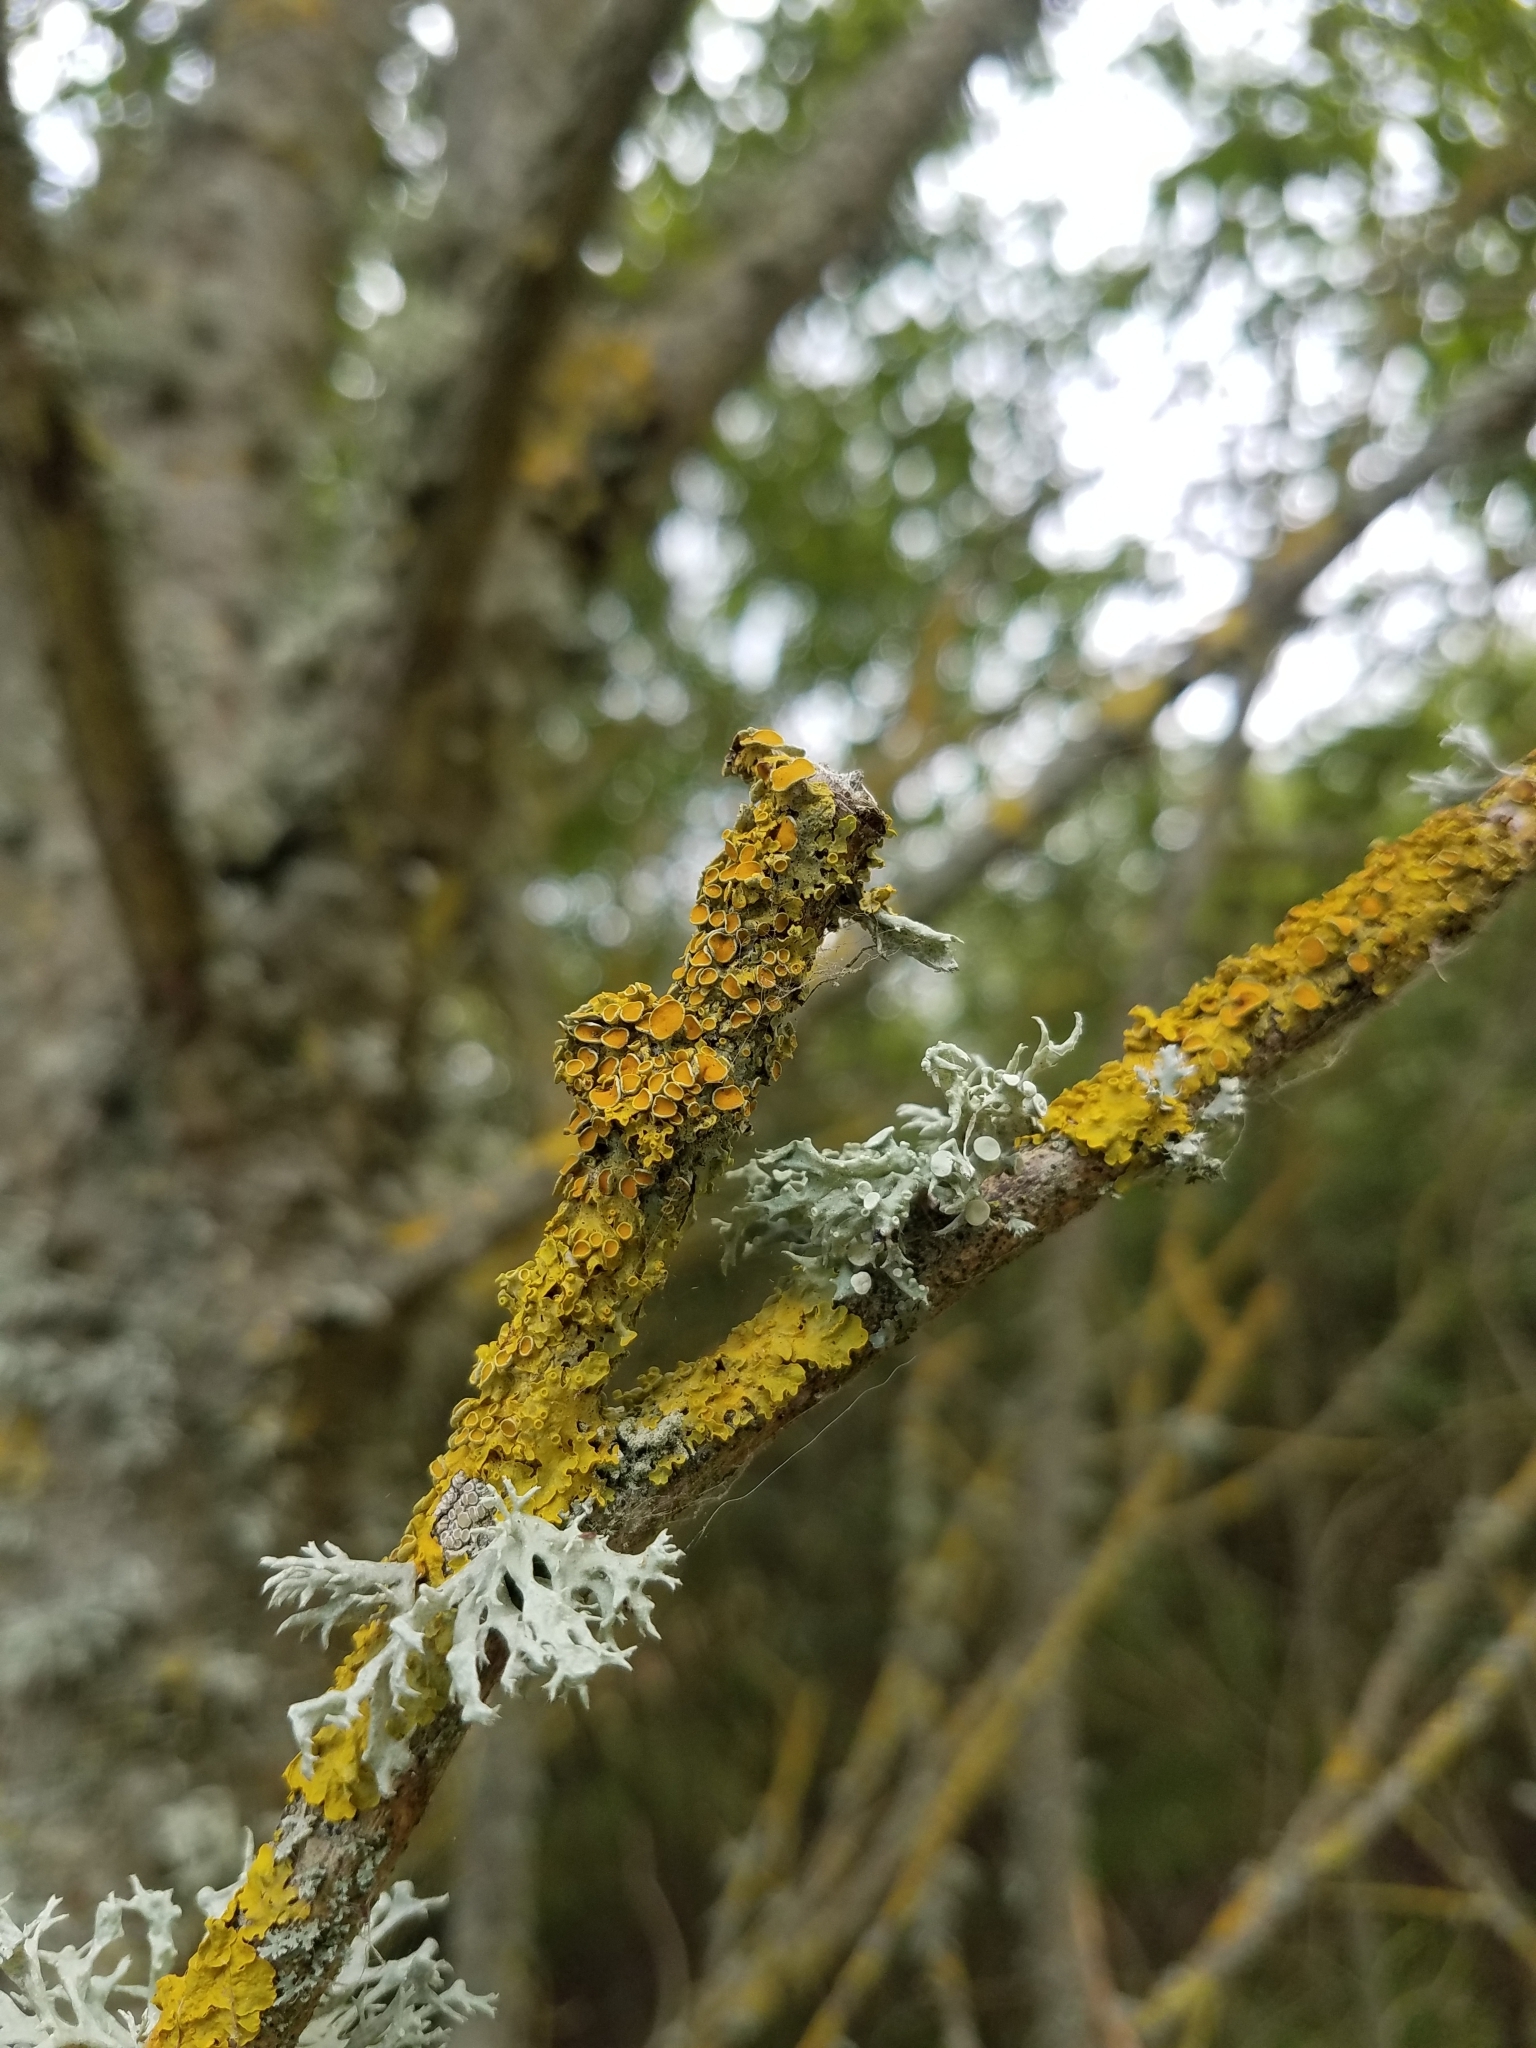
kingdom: Fungi
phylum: Ascomycota
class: Lecanoromycetes
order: Teloschistales
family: Teloschistaceae
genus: Xanthoria
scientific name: Xanthoria parietina
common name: Common orange lichen
